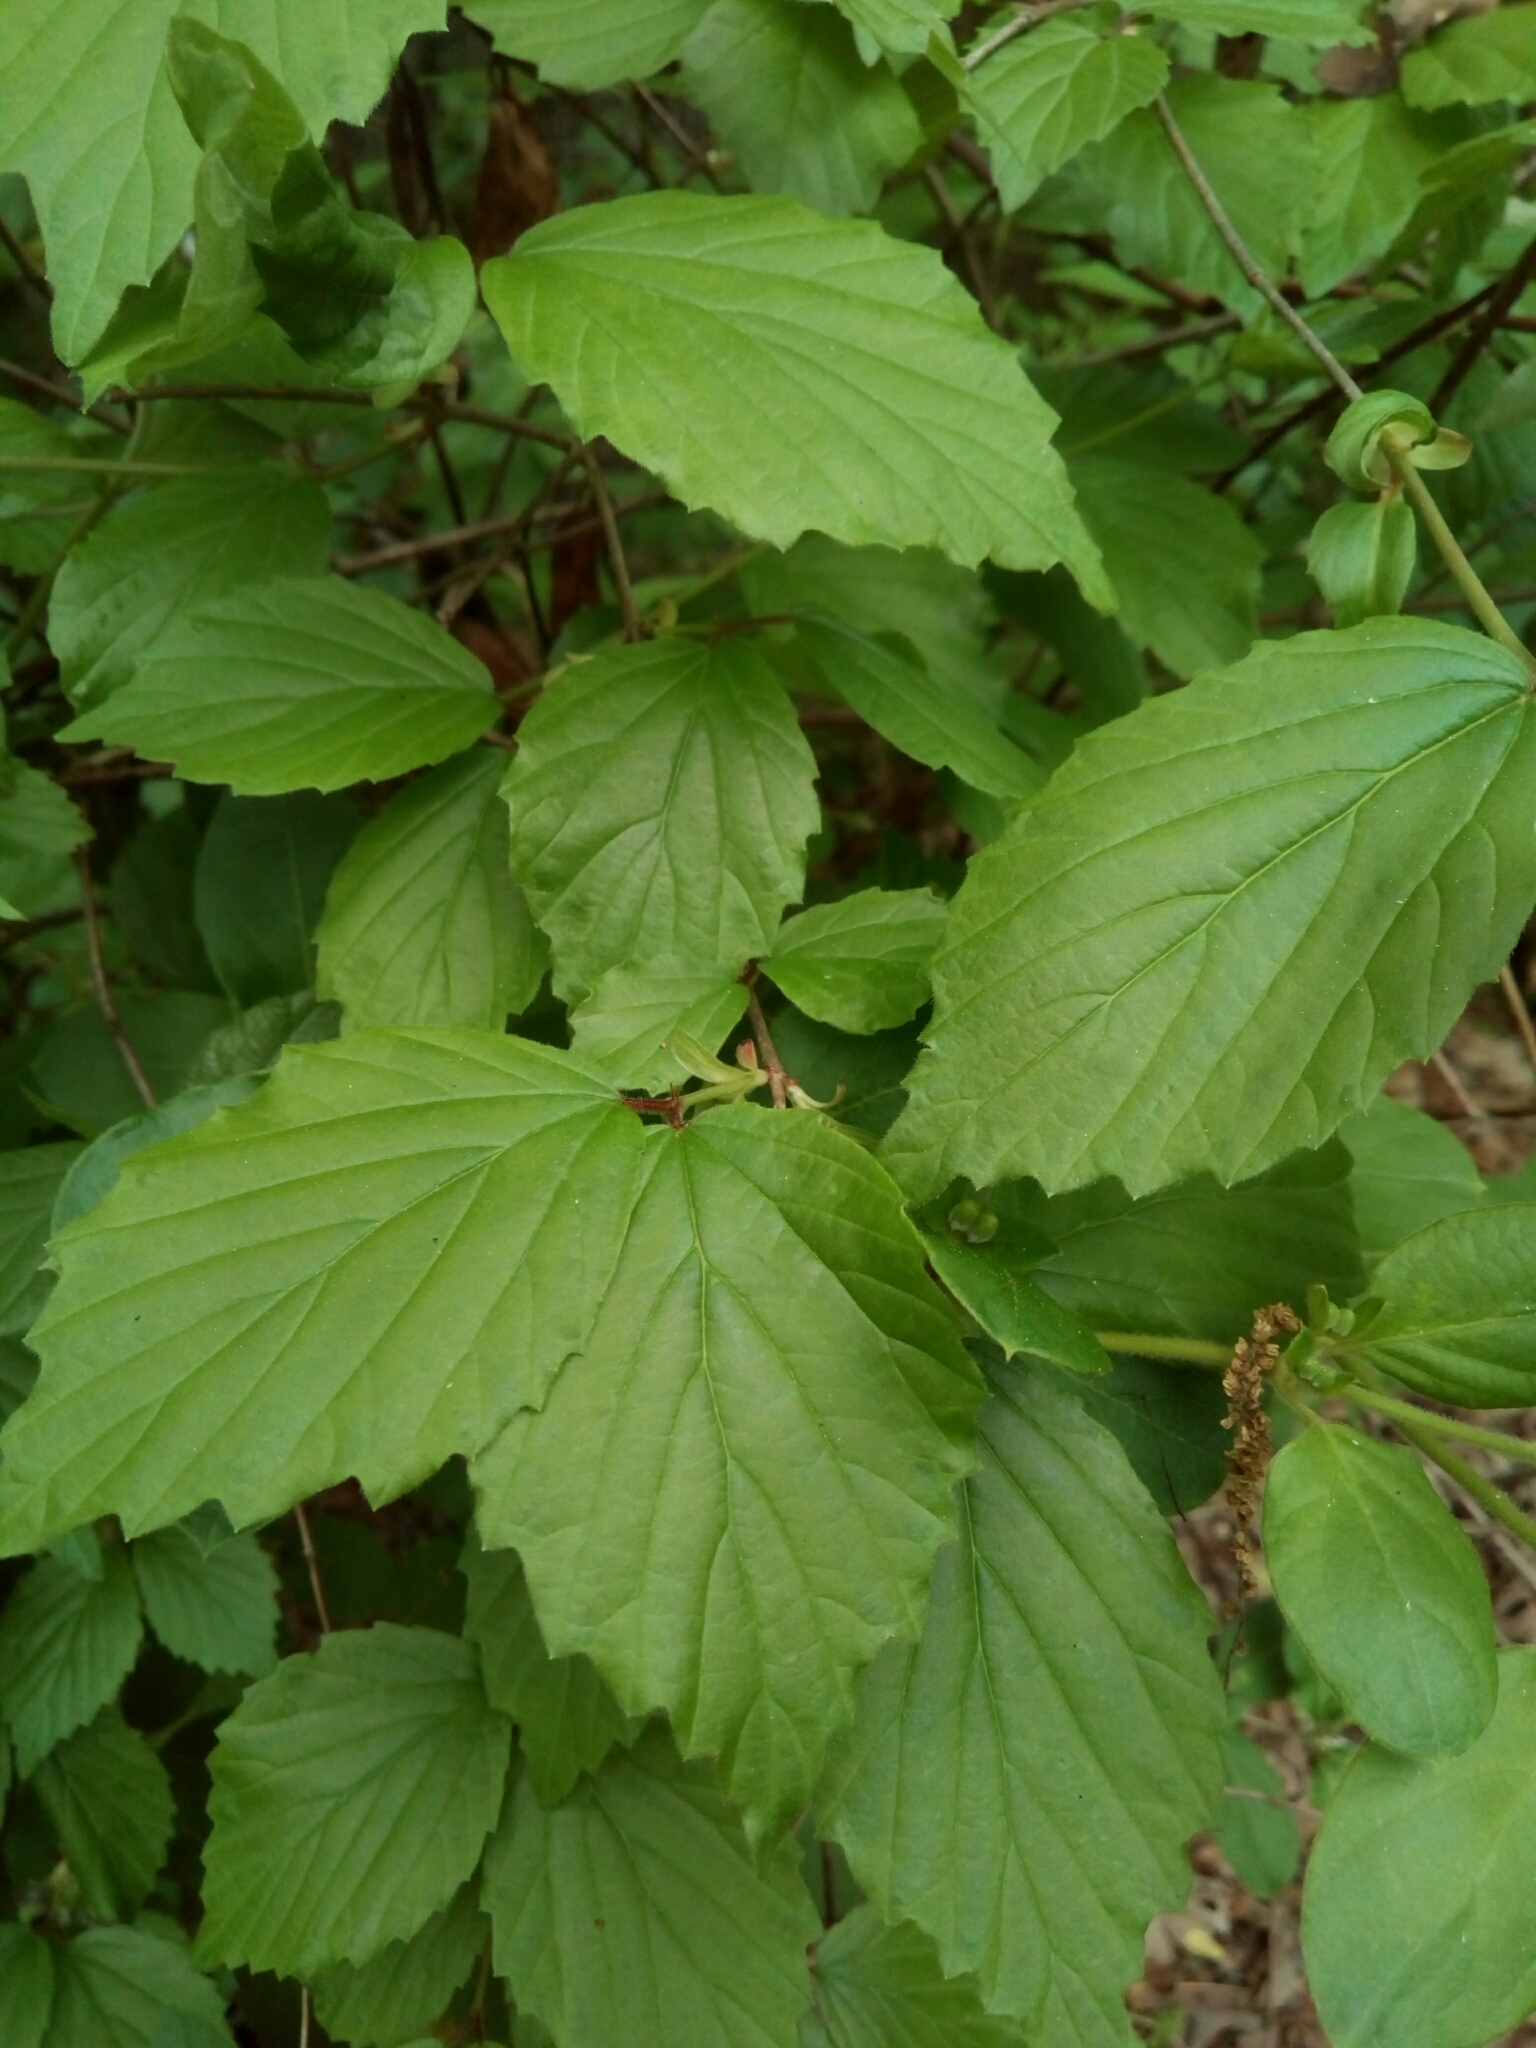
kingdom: Plantae
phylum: Tracheophyta
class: Magnoliopsida
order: Dipsacales
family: Viburnaceae
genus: Viburnum
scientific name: Viburnum rafinesqueanum
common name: Downy arrow-wood
